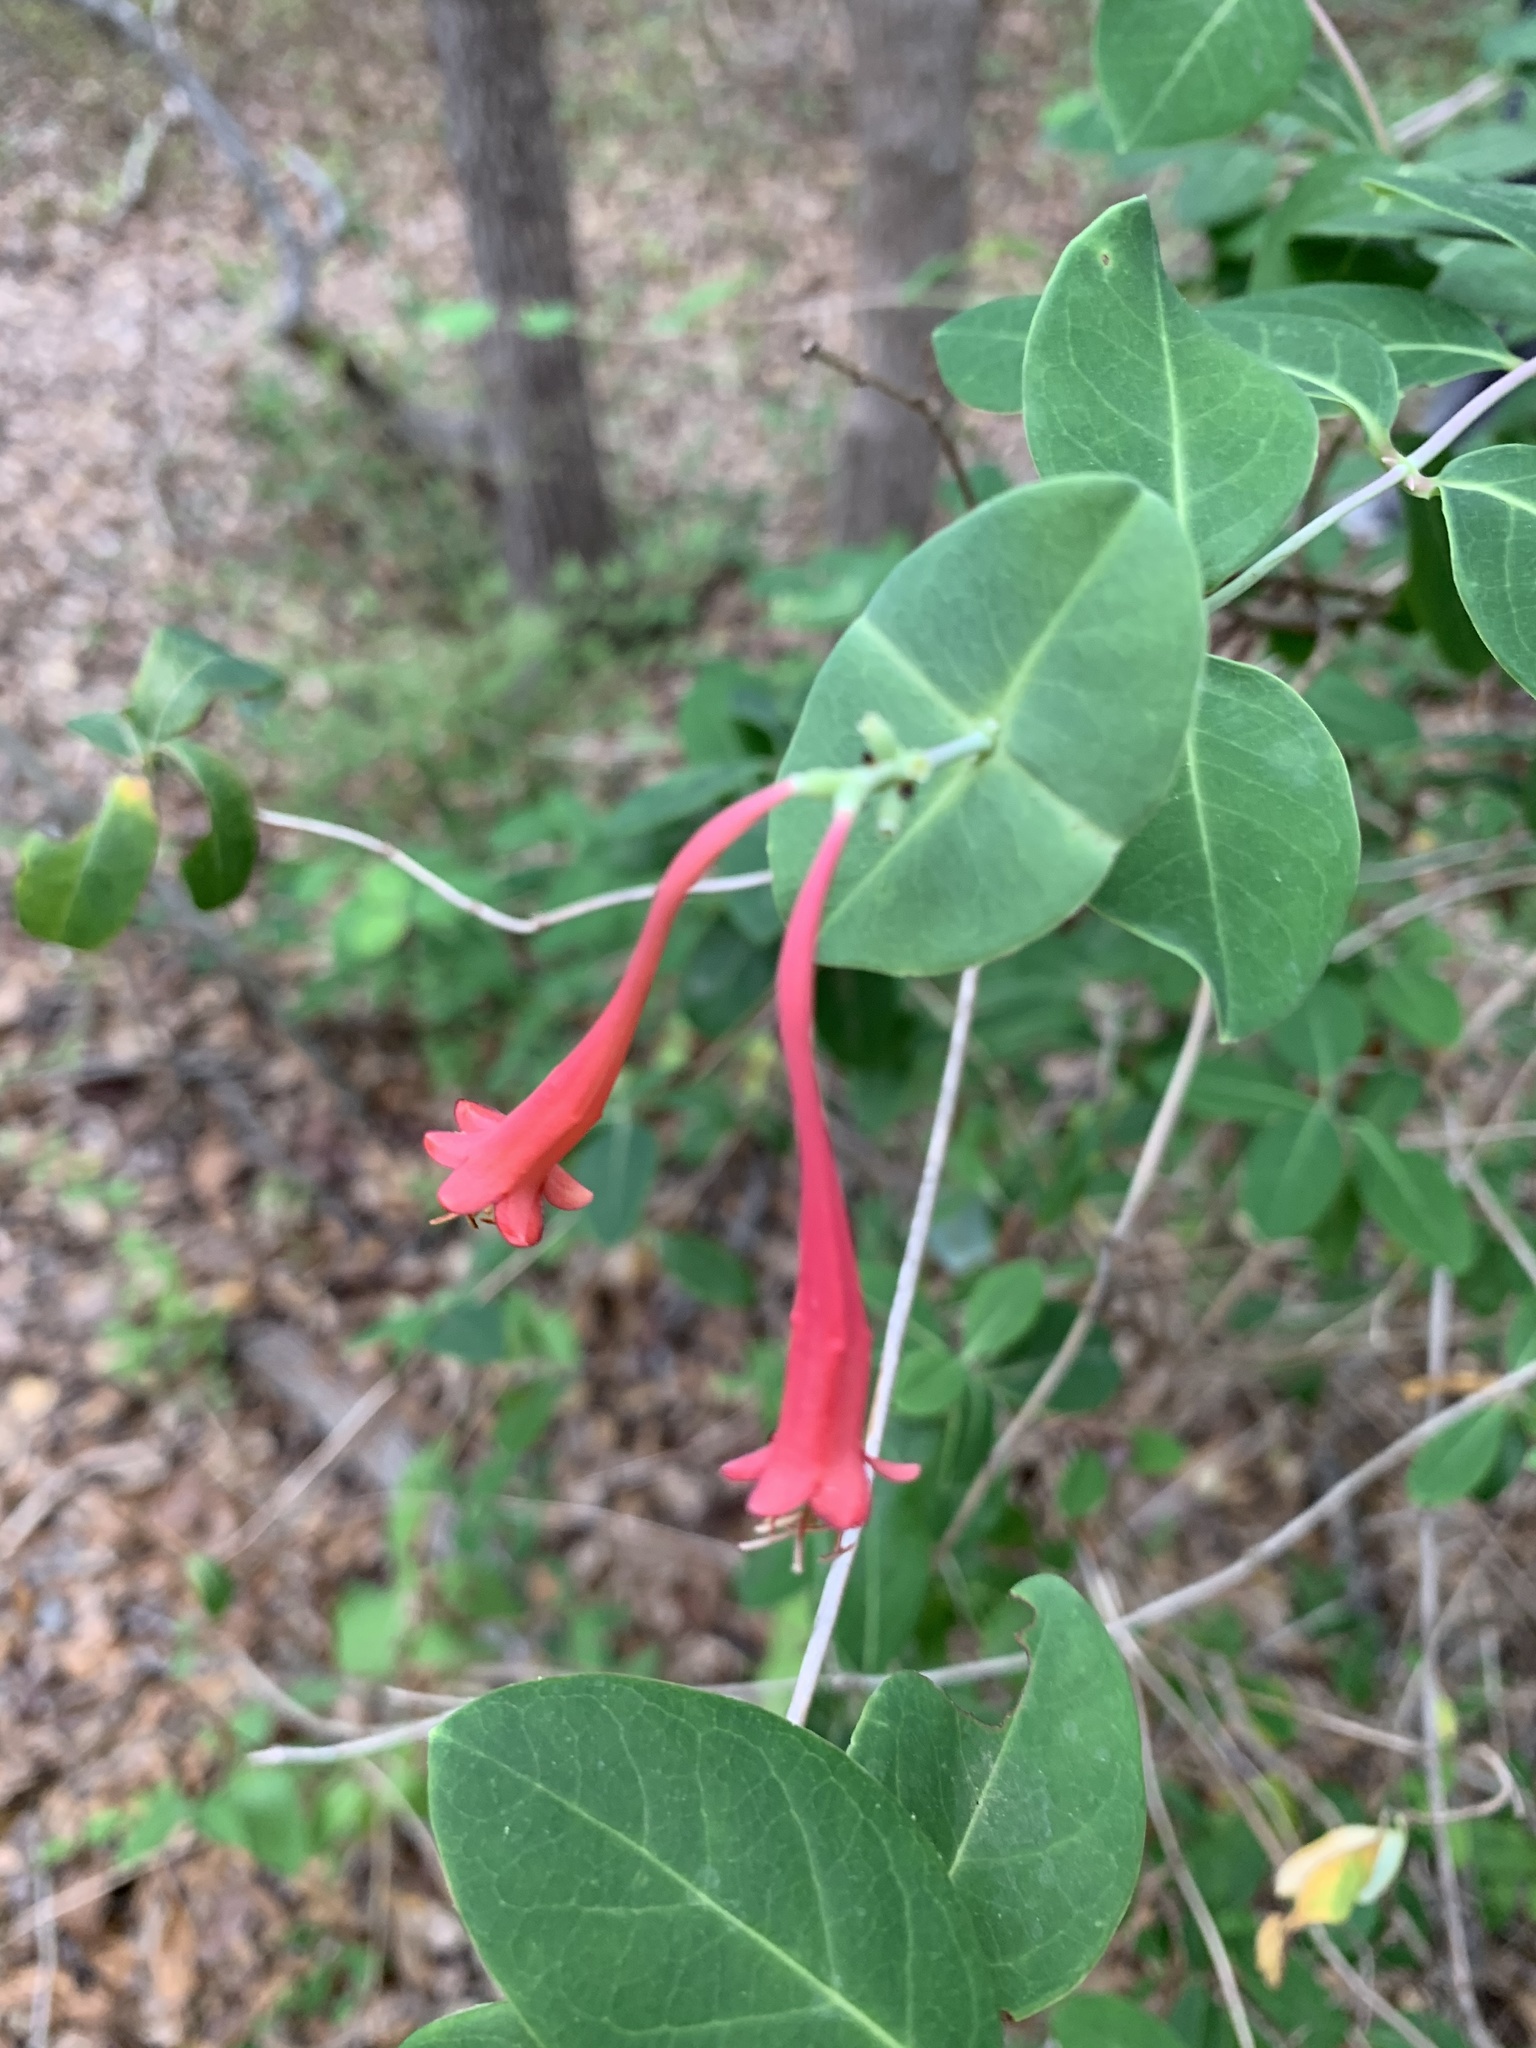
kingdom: Plantae
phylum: Tracheophyta
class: Magnoliopsida
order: Dipsacales
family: Caprifoliaceae
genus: Lonicera
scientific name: Lonicera sempervirens
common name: Coral honeysuckle
